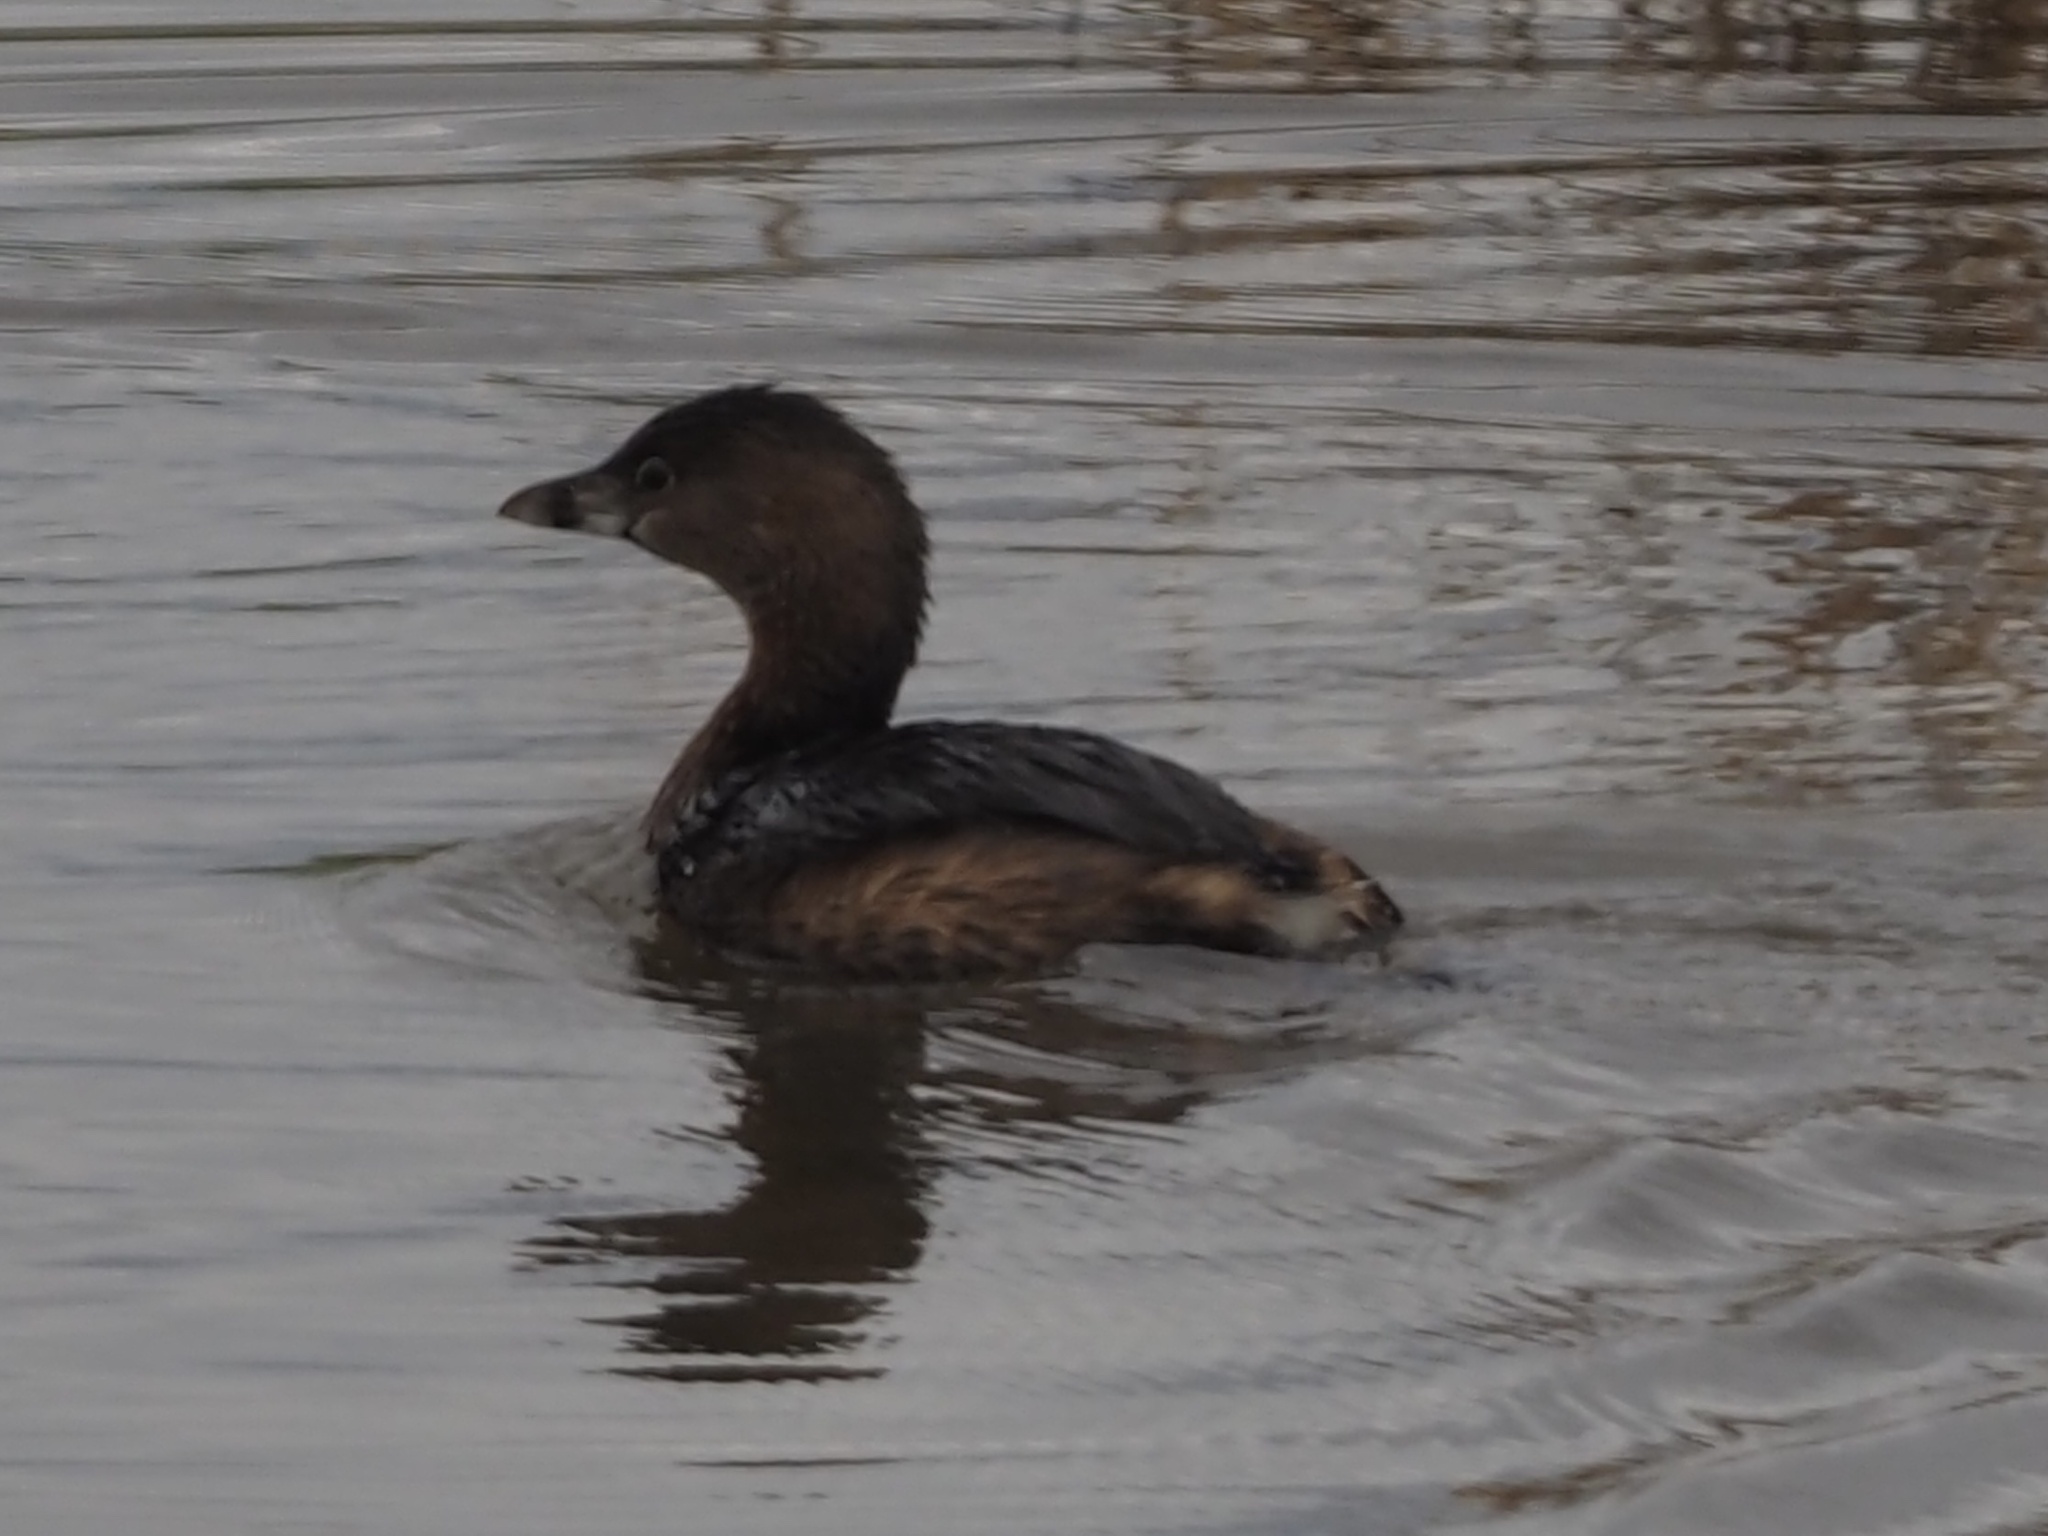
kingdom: Animalia
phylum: Chordata
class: Aves
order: Podicipediformes
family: Podicipedidae
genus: Podilymbus
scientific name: Podilymbus podiceps
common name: Pied-billed grebe
